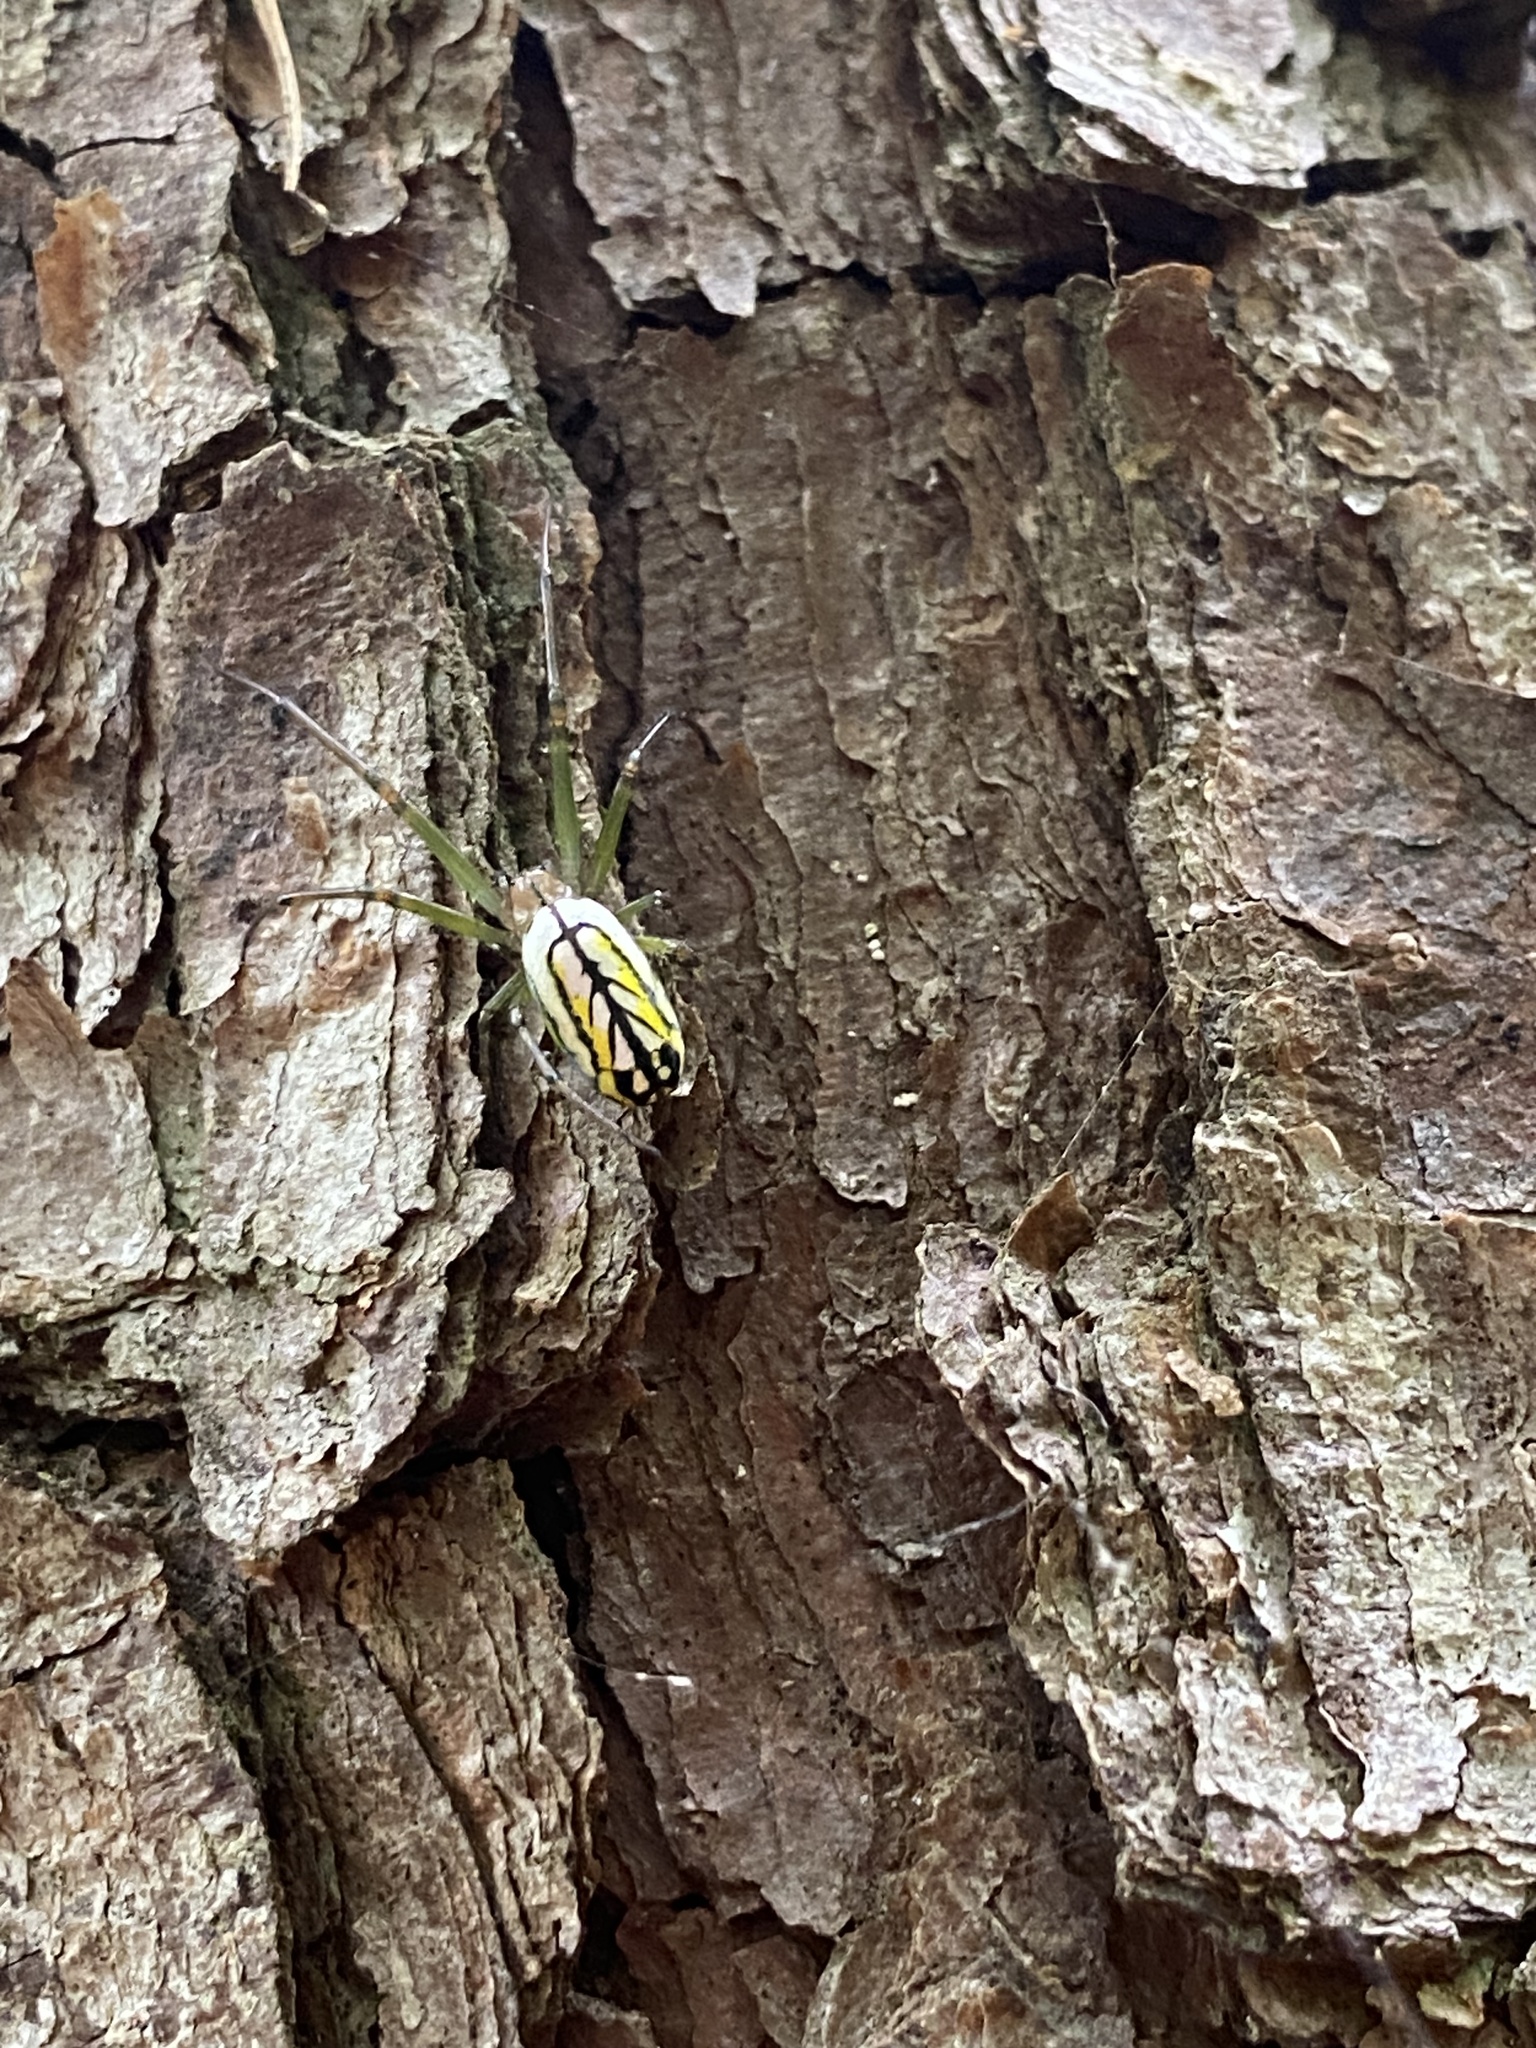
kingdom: Animalia
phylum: Arthropoda
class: Arachnida
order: Araneae
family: Tetragnathidae
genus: Leucauge
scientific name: Leucauge venusta
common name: Longjawed orb weavers
